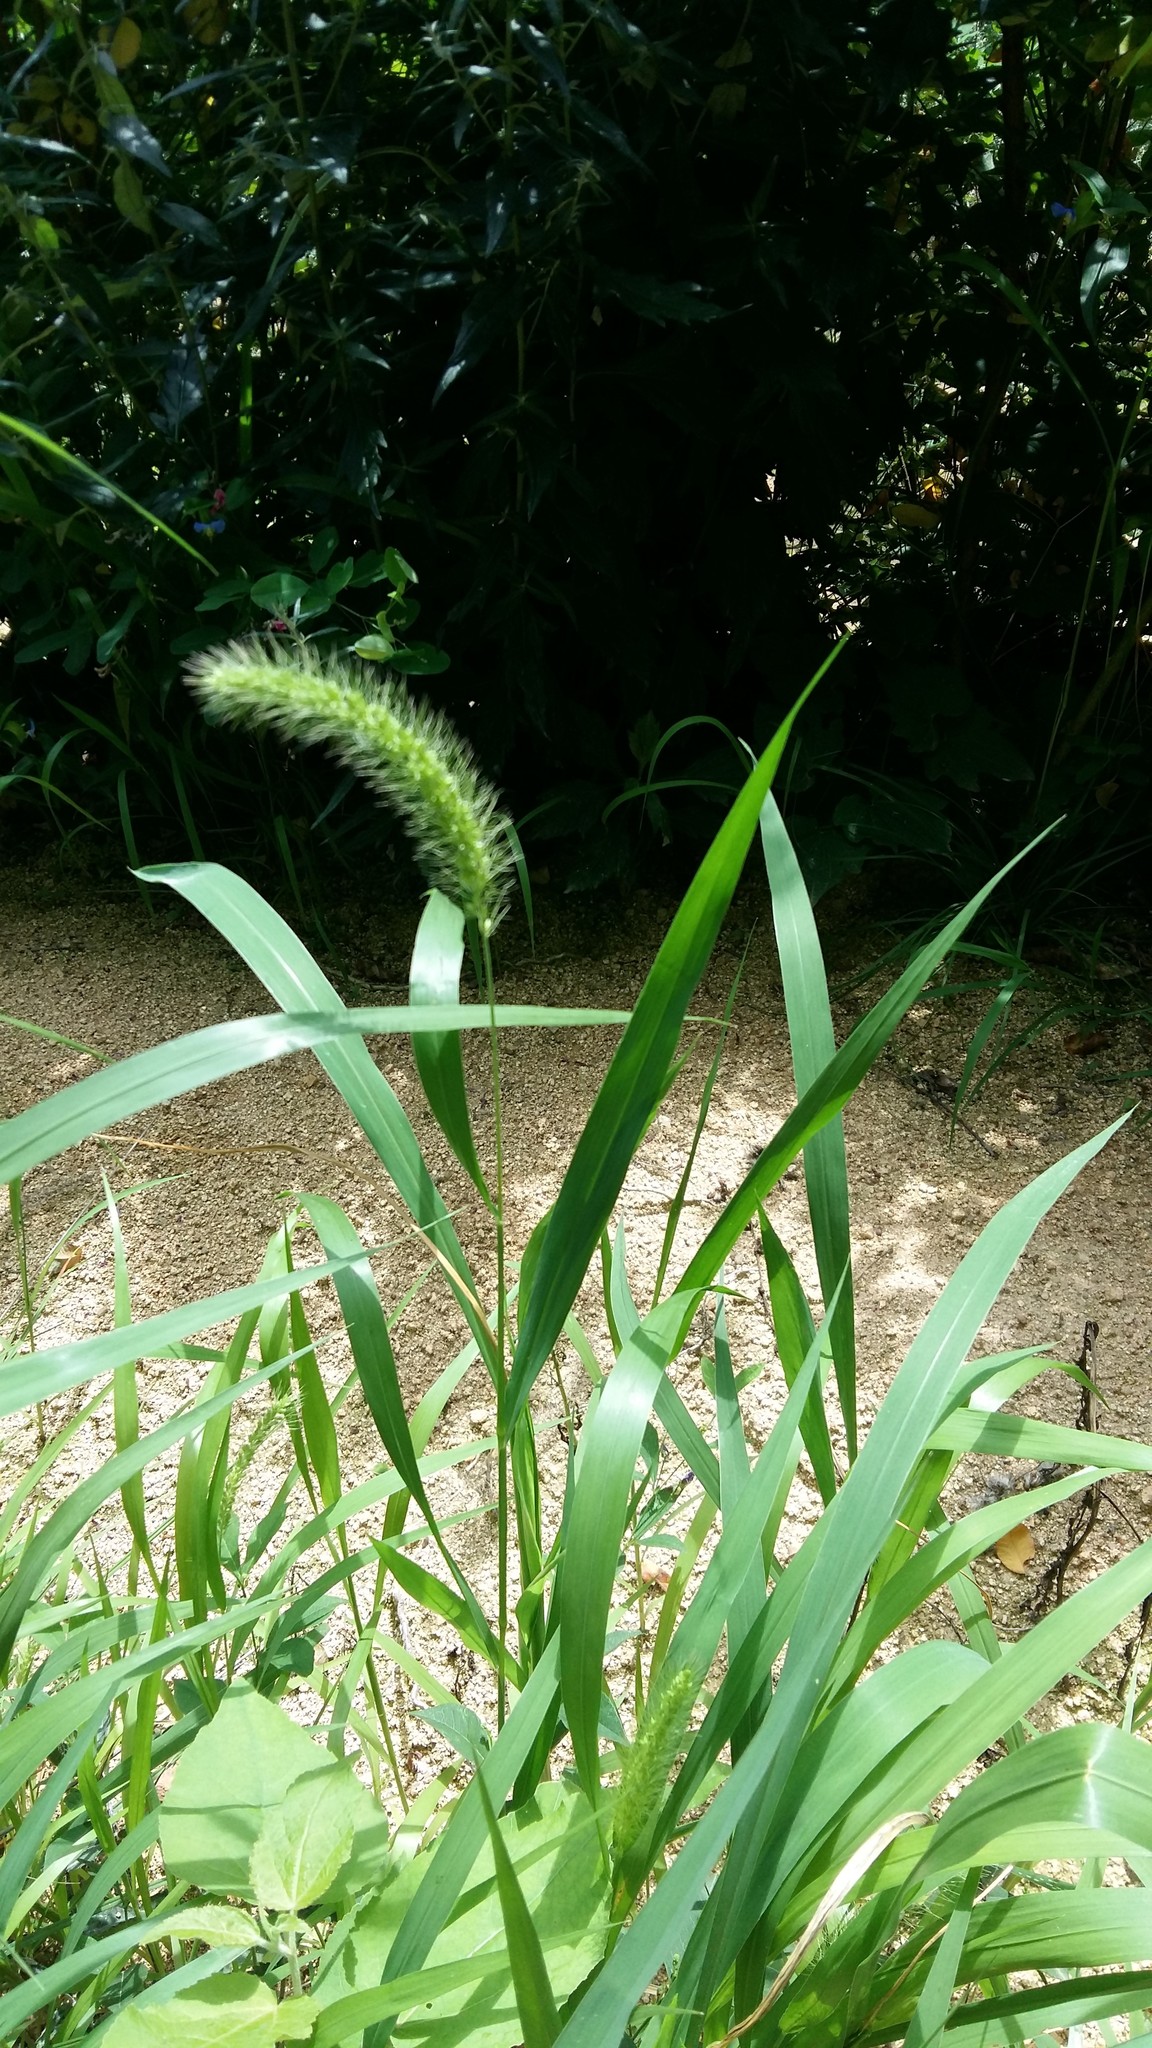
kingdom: Plantae
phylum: Tracheophyta
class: Liliopsida
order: Poales
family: Poaceae
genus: Setaria
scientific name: Setaria viridis
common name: Green bristlegrass
